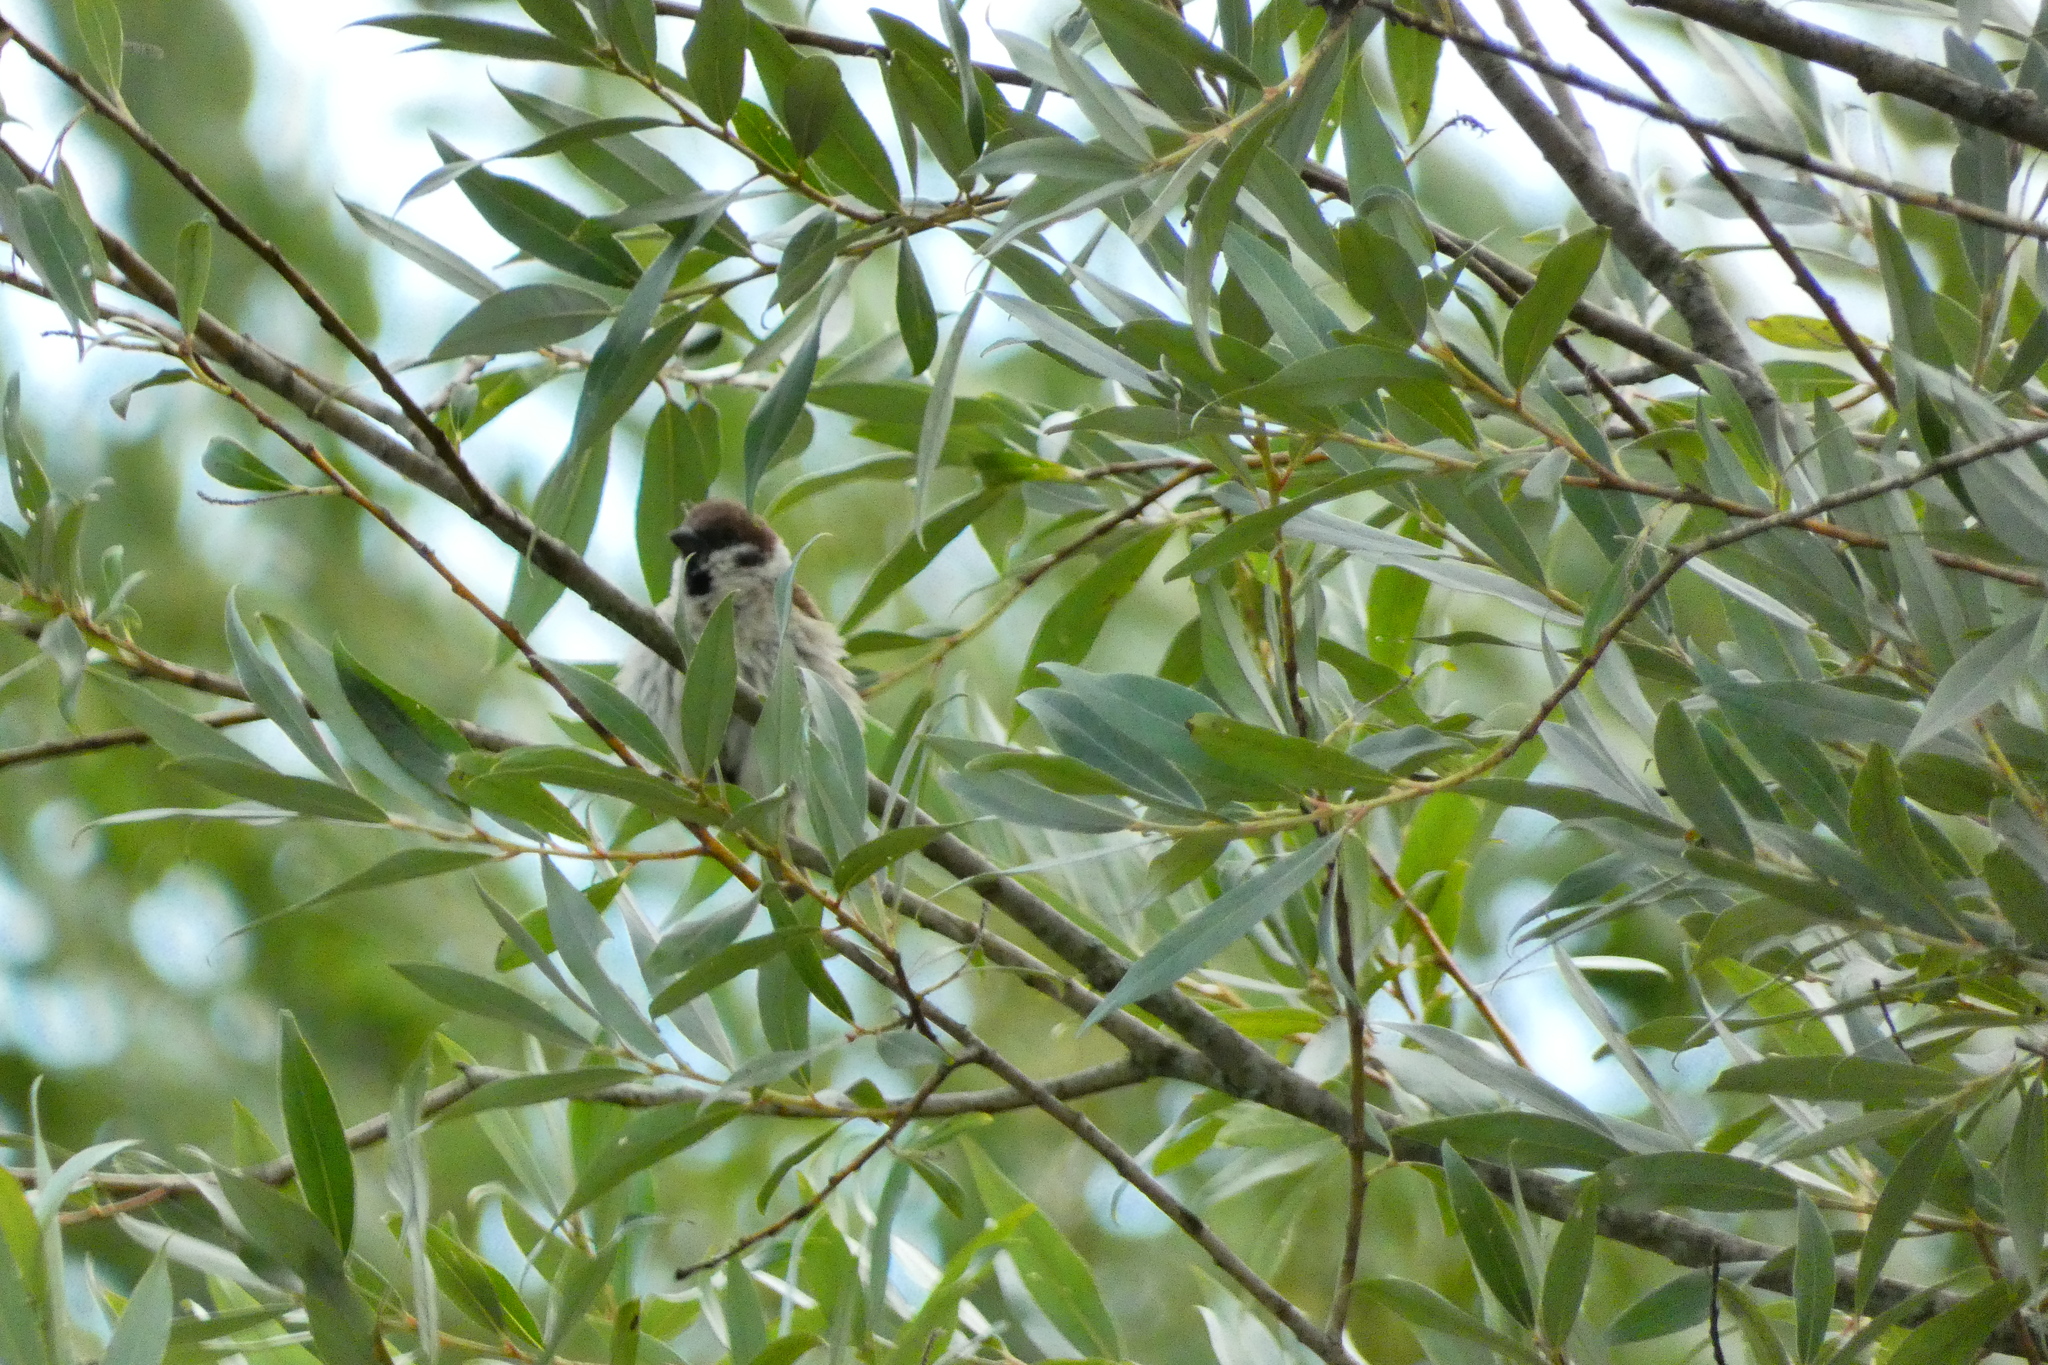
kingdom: Animalia
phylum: Chordata
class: Aves
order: Passeriformes
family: Passeridae
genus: Passer
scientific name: Passer montanus
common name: Eurasian tree sparrow
